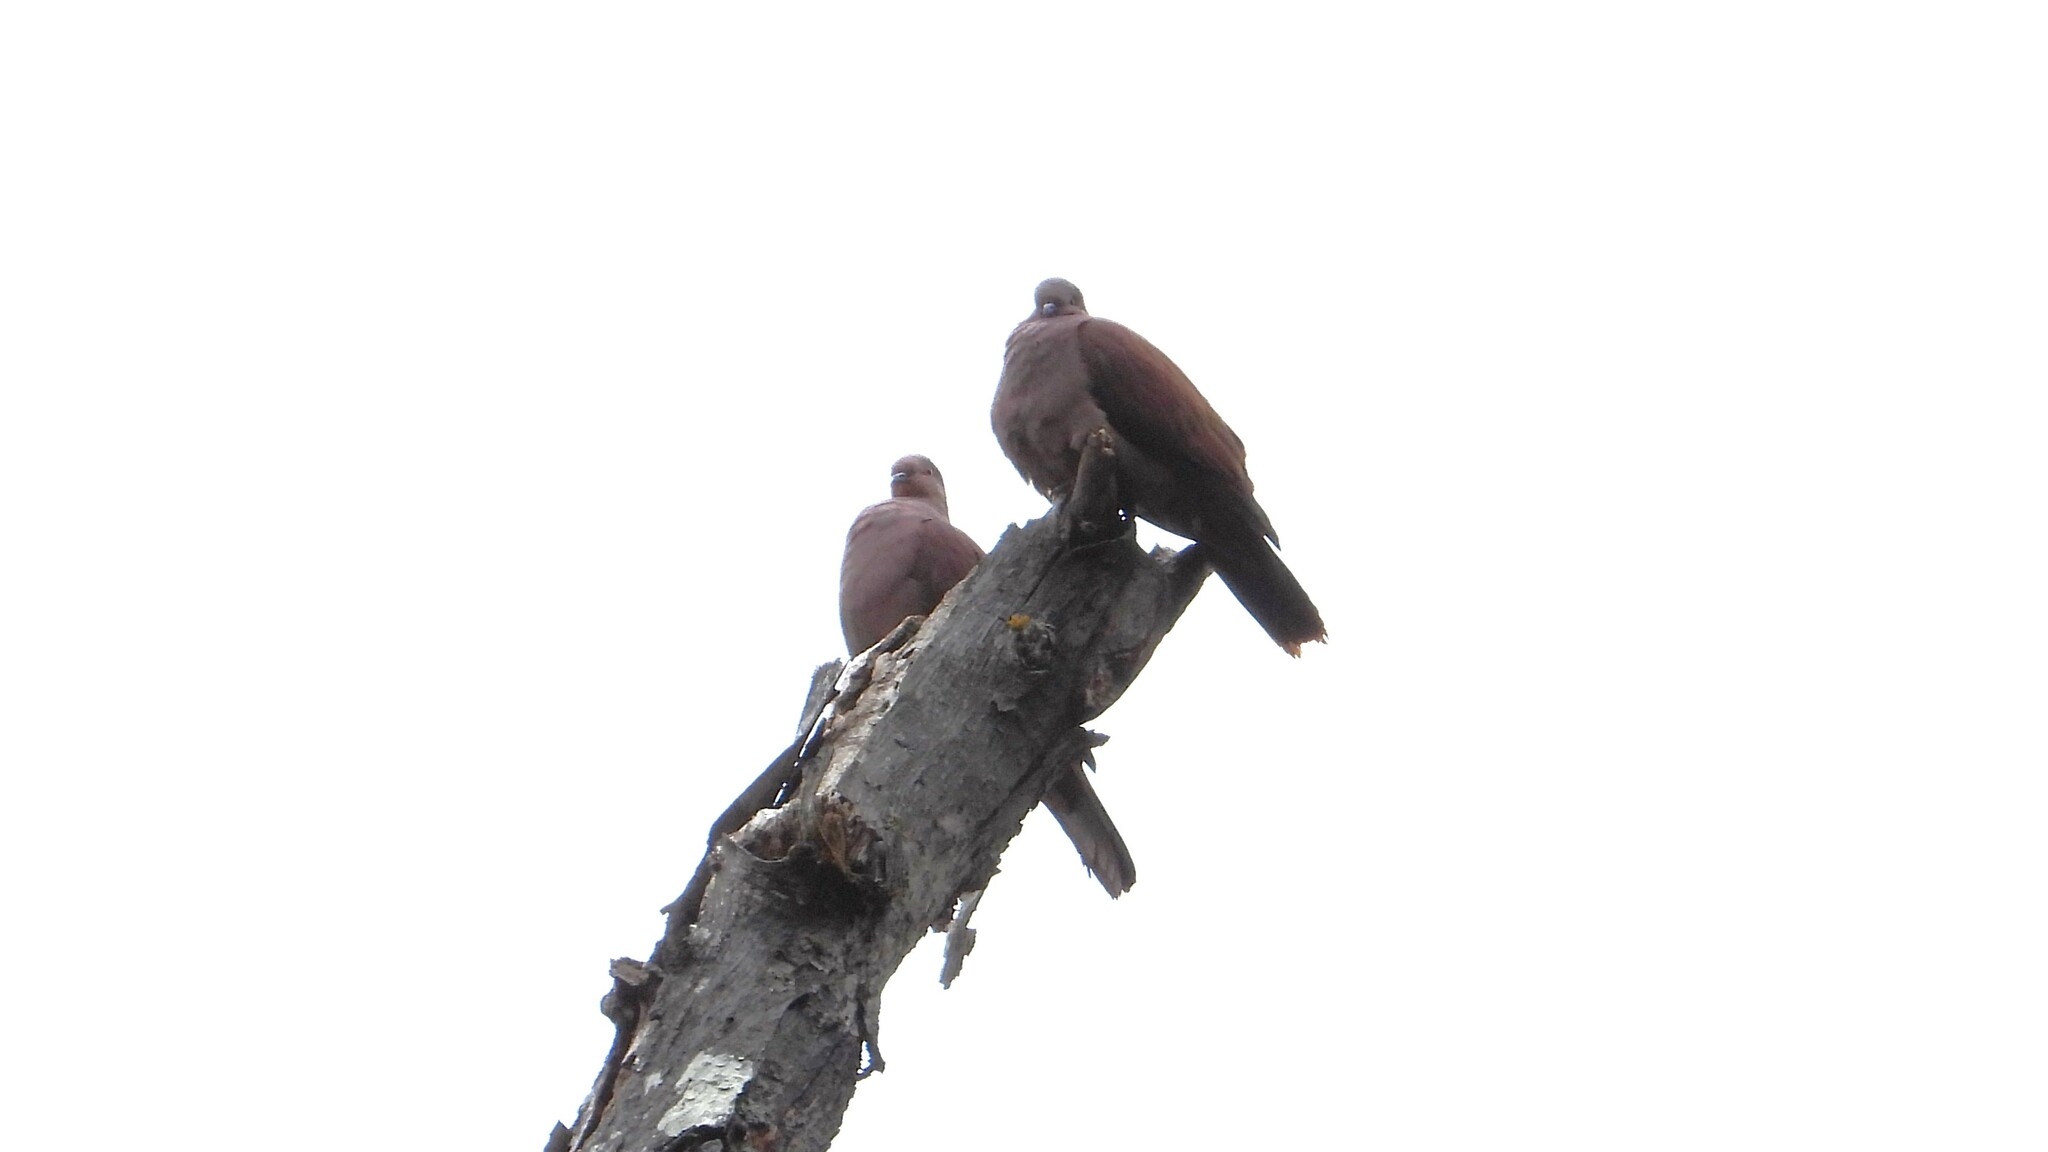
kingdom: Animalia
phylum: Chordata
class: Aves
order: Columbiformes
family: Columbidae
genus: Patagioenas
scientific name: Patagioenas subvinacea
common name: Ruddy pigeon
